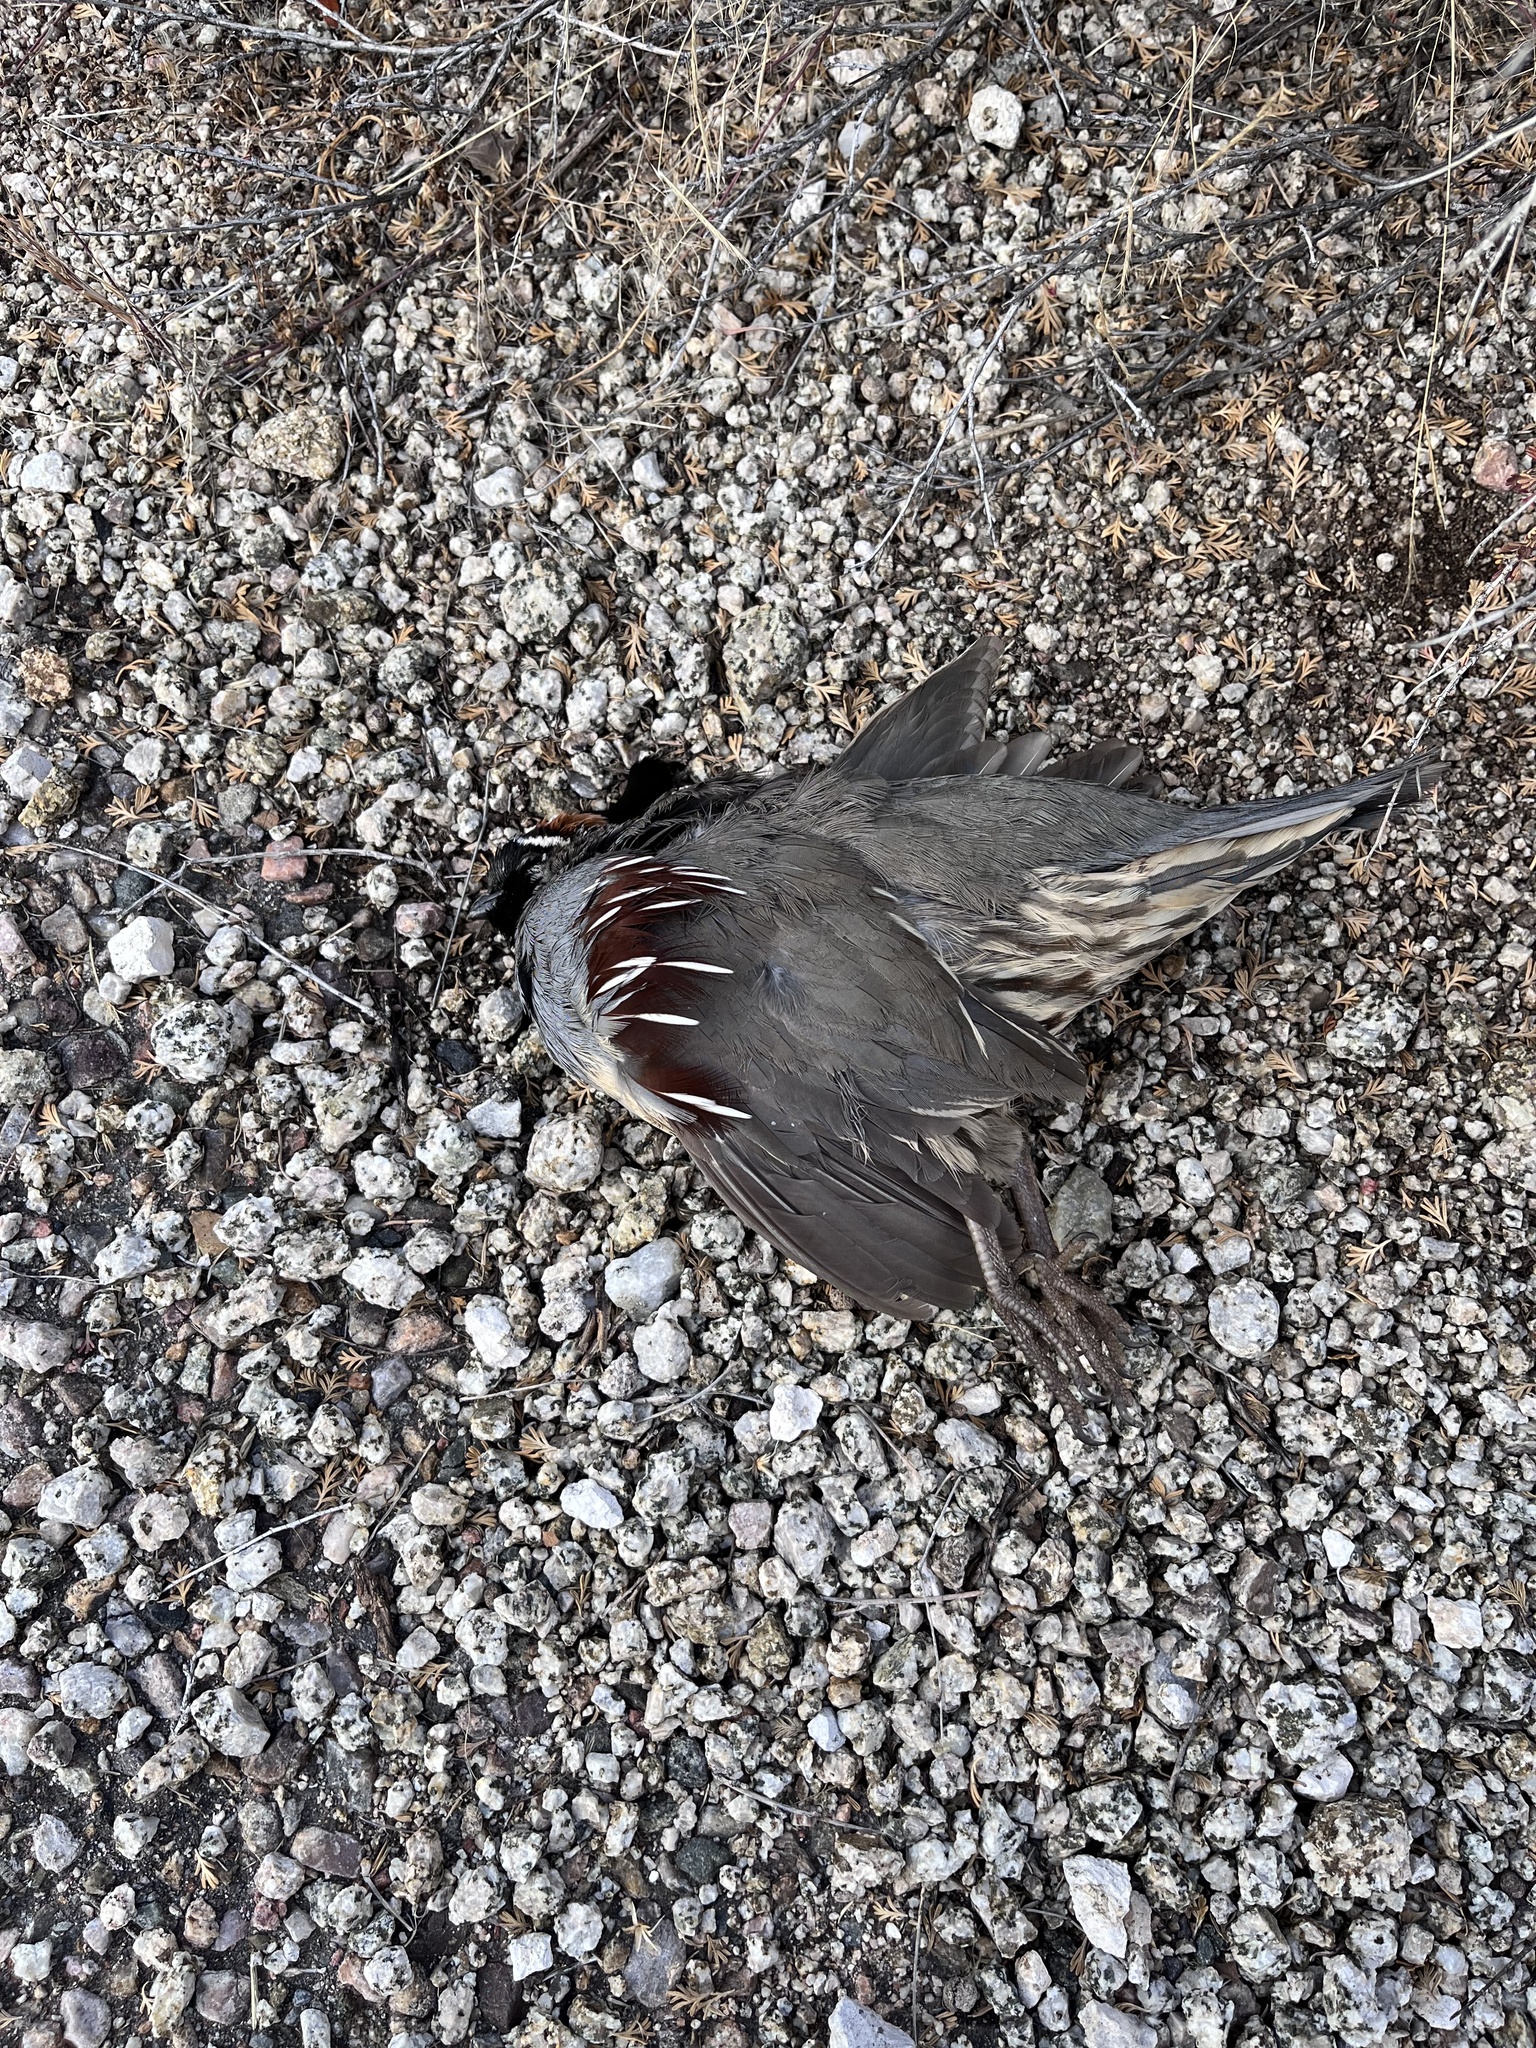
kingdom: Animalia
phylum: Chordata
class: Aves
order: Galliformes
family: Odontophoridae
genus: Callipepla
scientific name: Callipepla gambelii
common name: Gambel's quail
